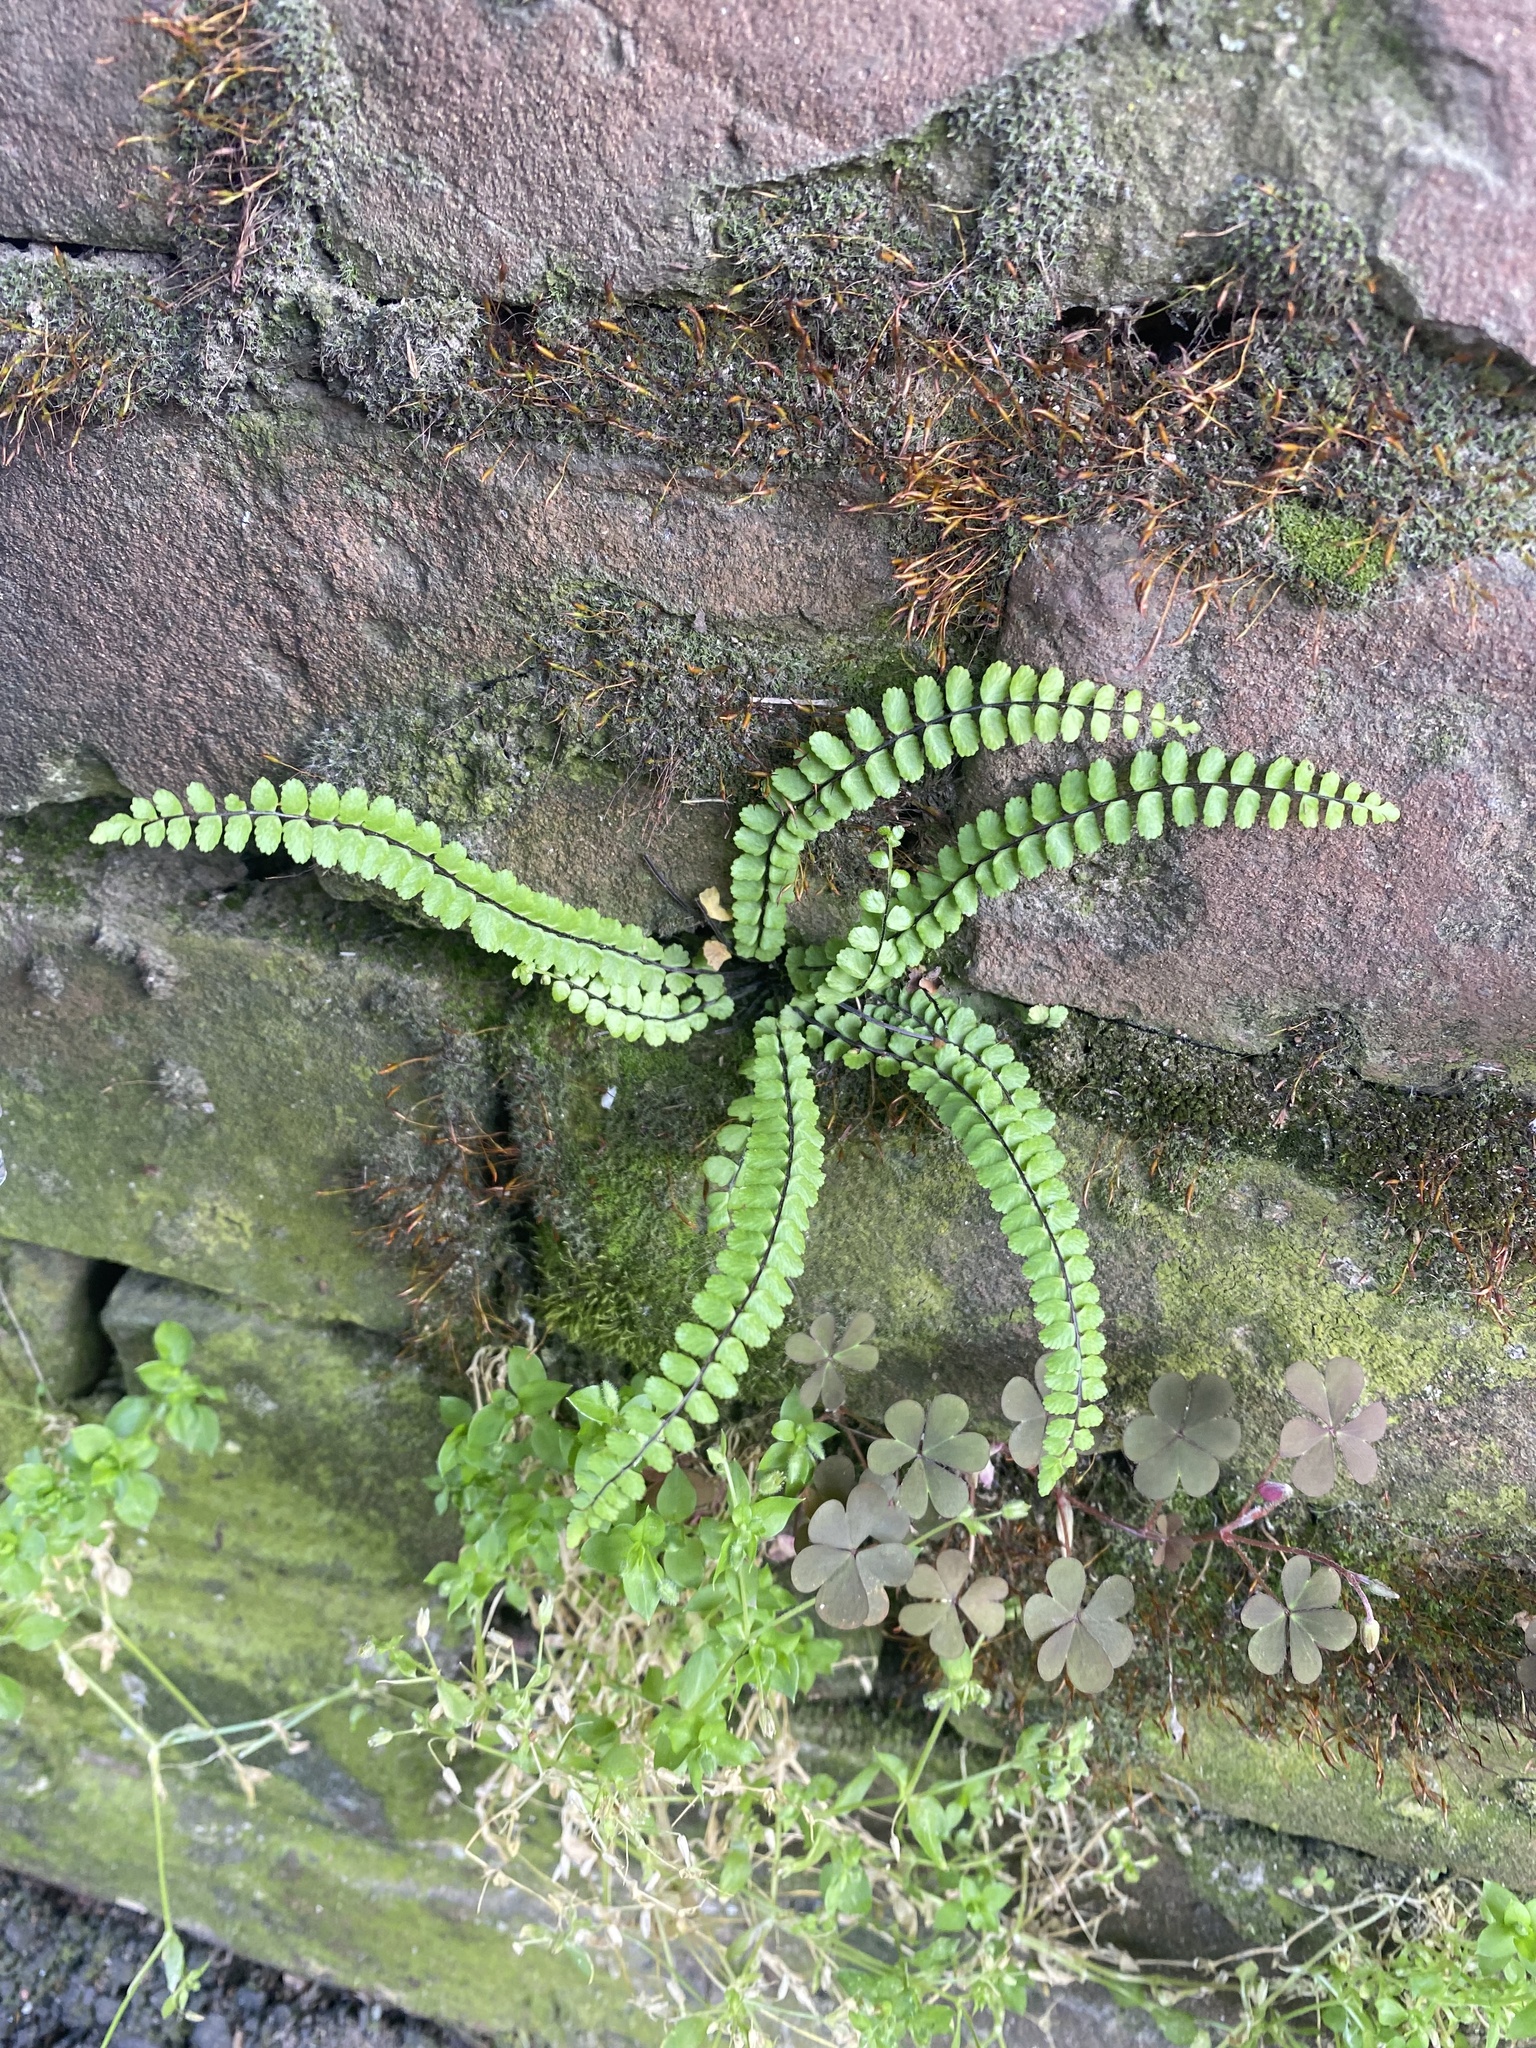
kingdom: Plantae
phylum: Tracheophyta
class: Polypodiopsida
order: Polypodiales
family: Aspleniaceae
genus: Asplenium
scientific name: Asplenium trichomanes
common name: Maidenhair spleenwort
